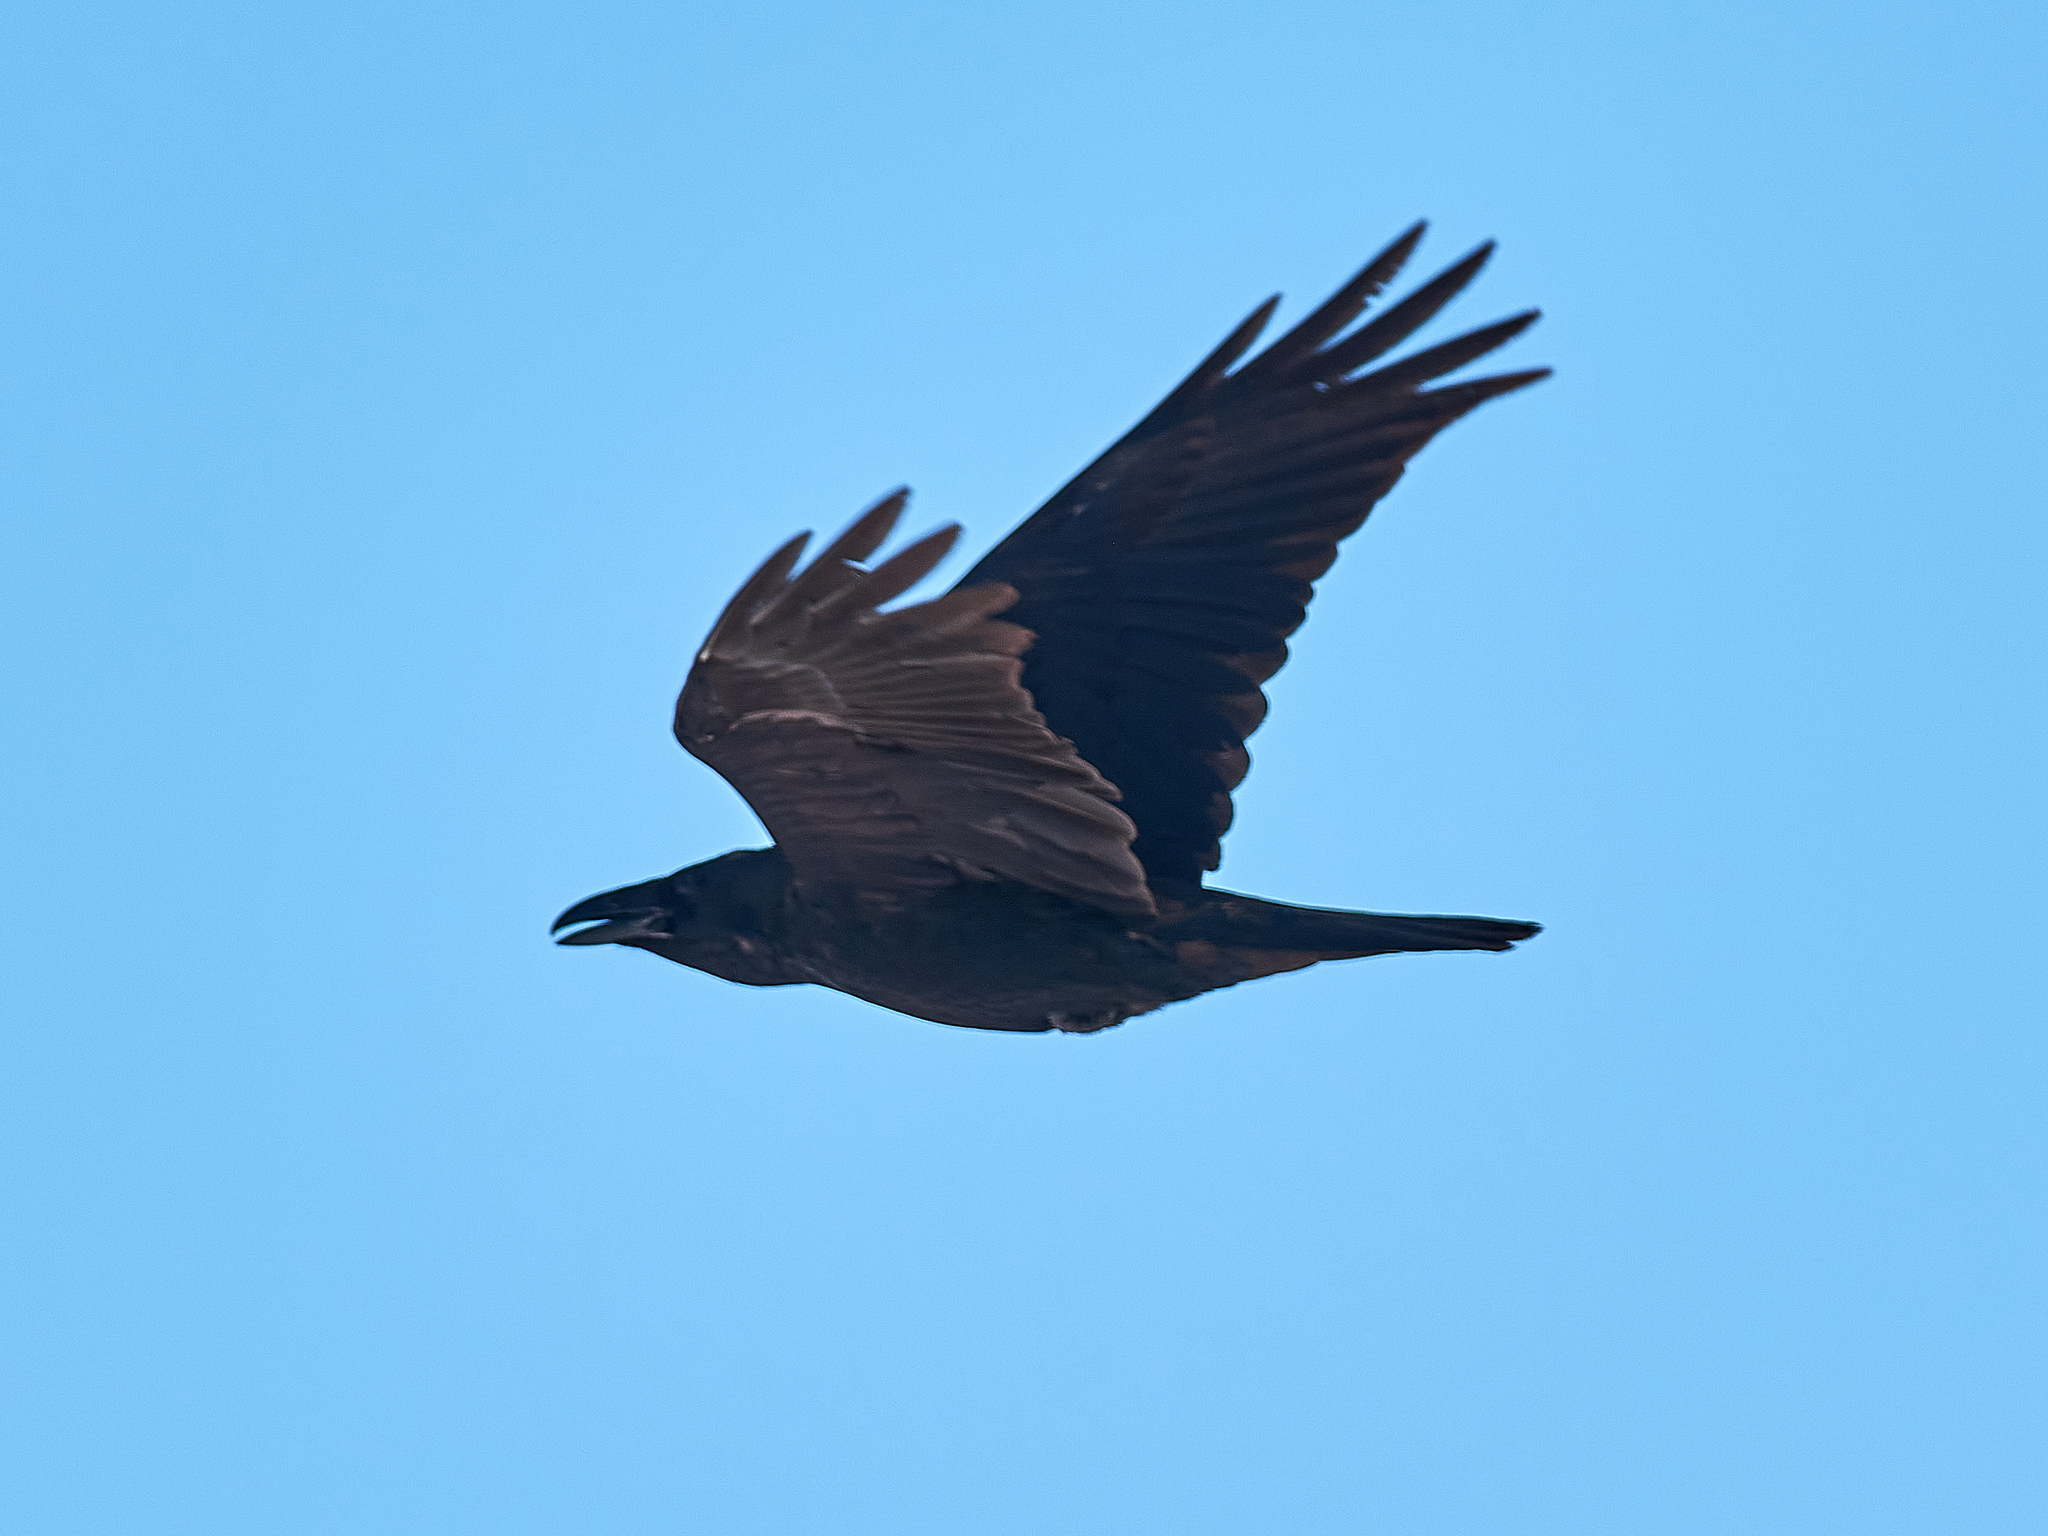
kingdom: Animalia
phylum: Chordata
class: Aves
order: Passeriformes
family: Corvidae
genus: Corvus
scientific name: Corvus corax
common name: Common raven
